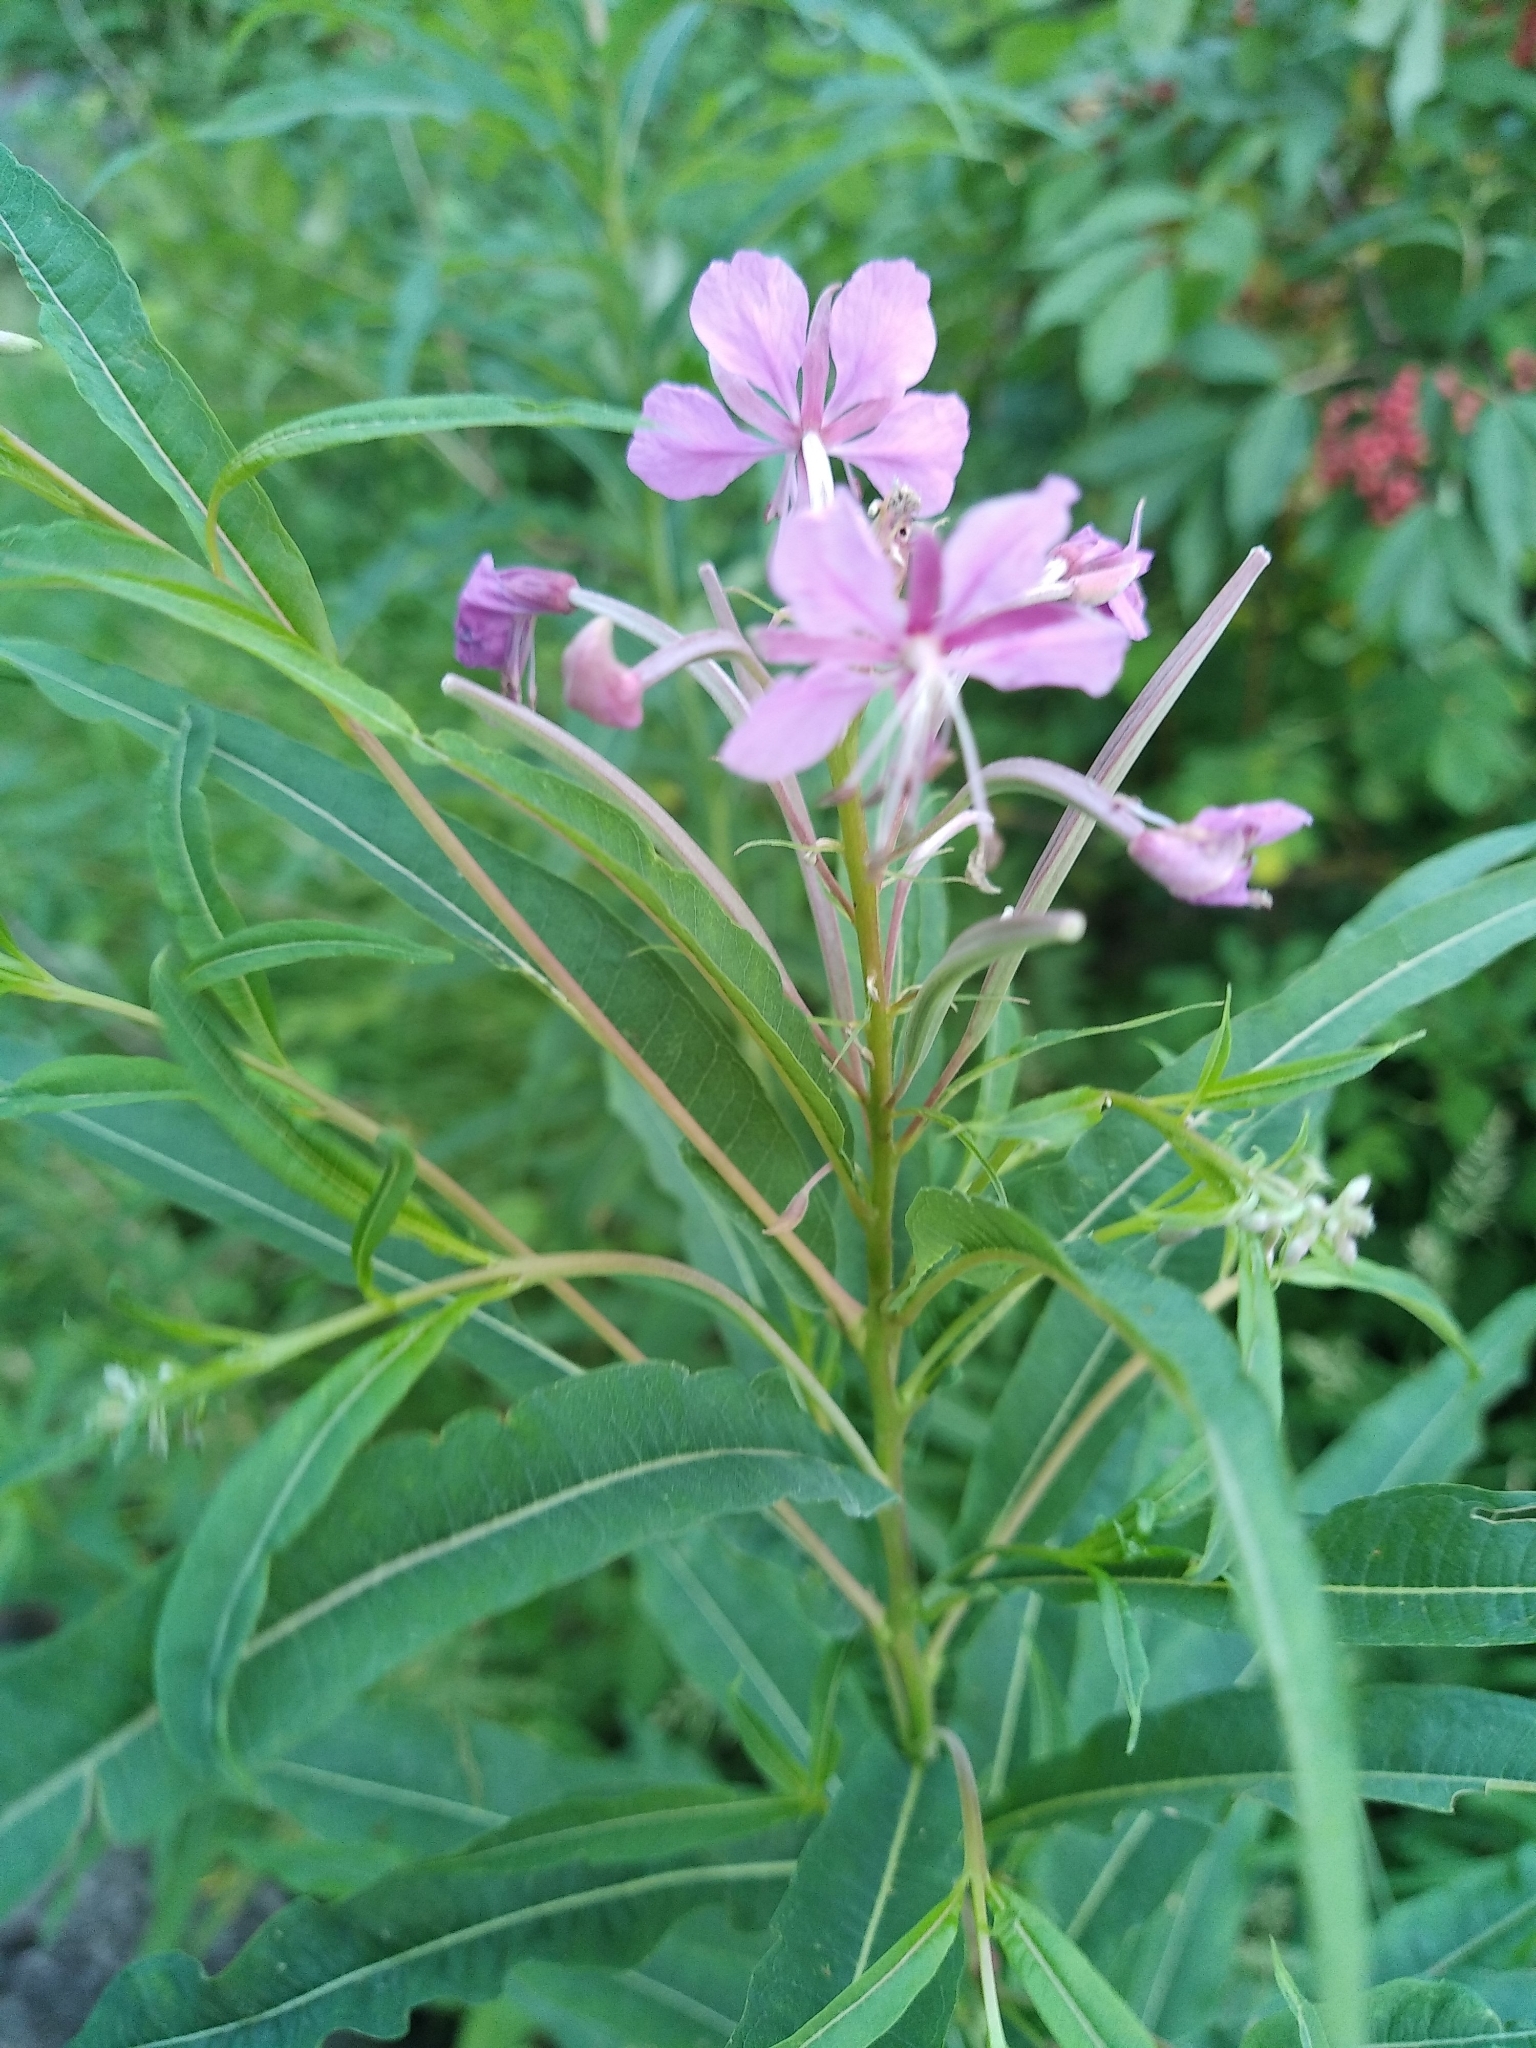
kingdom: Plantae
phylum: Tracheophyta
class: Magnoliopsida
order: Myrtales
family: Onagraceae
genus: Chamaenerion
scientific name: Chamaenerion angustifolium
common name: Fireweed
